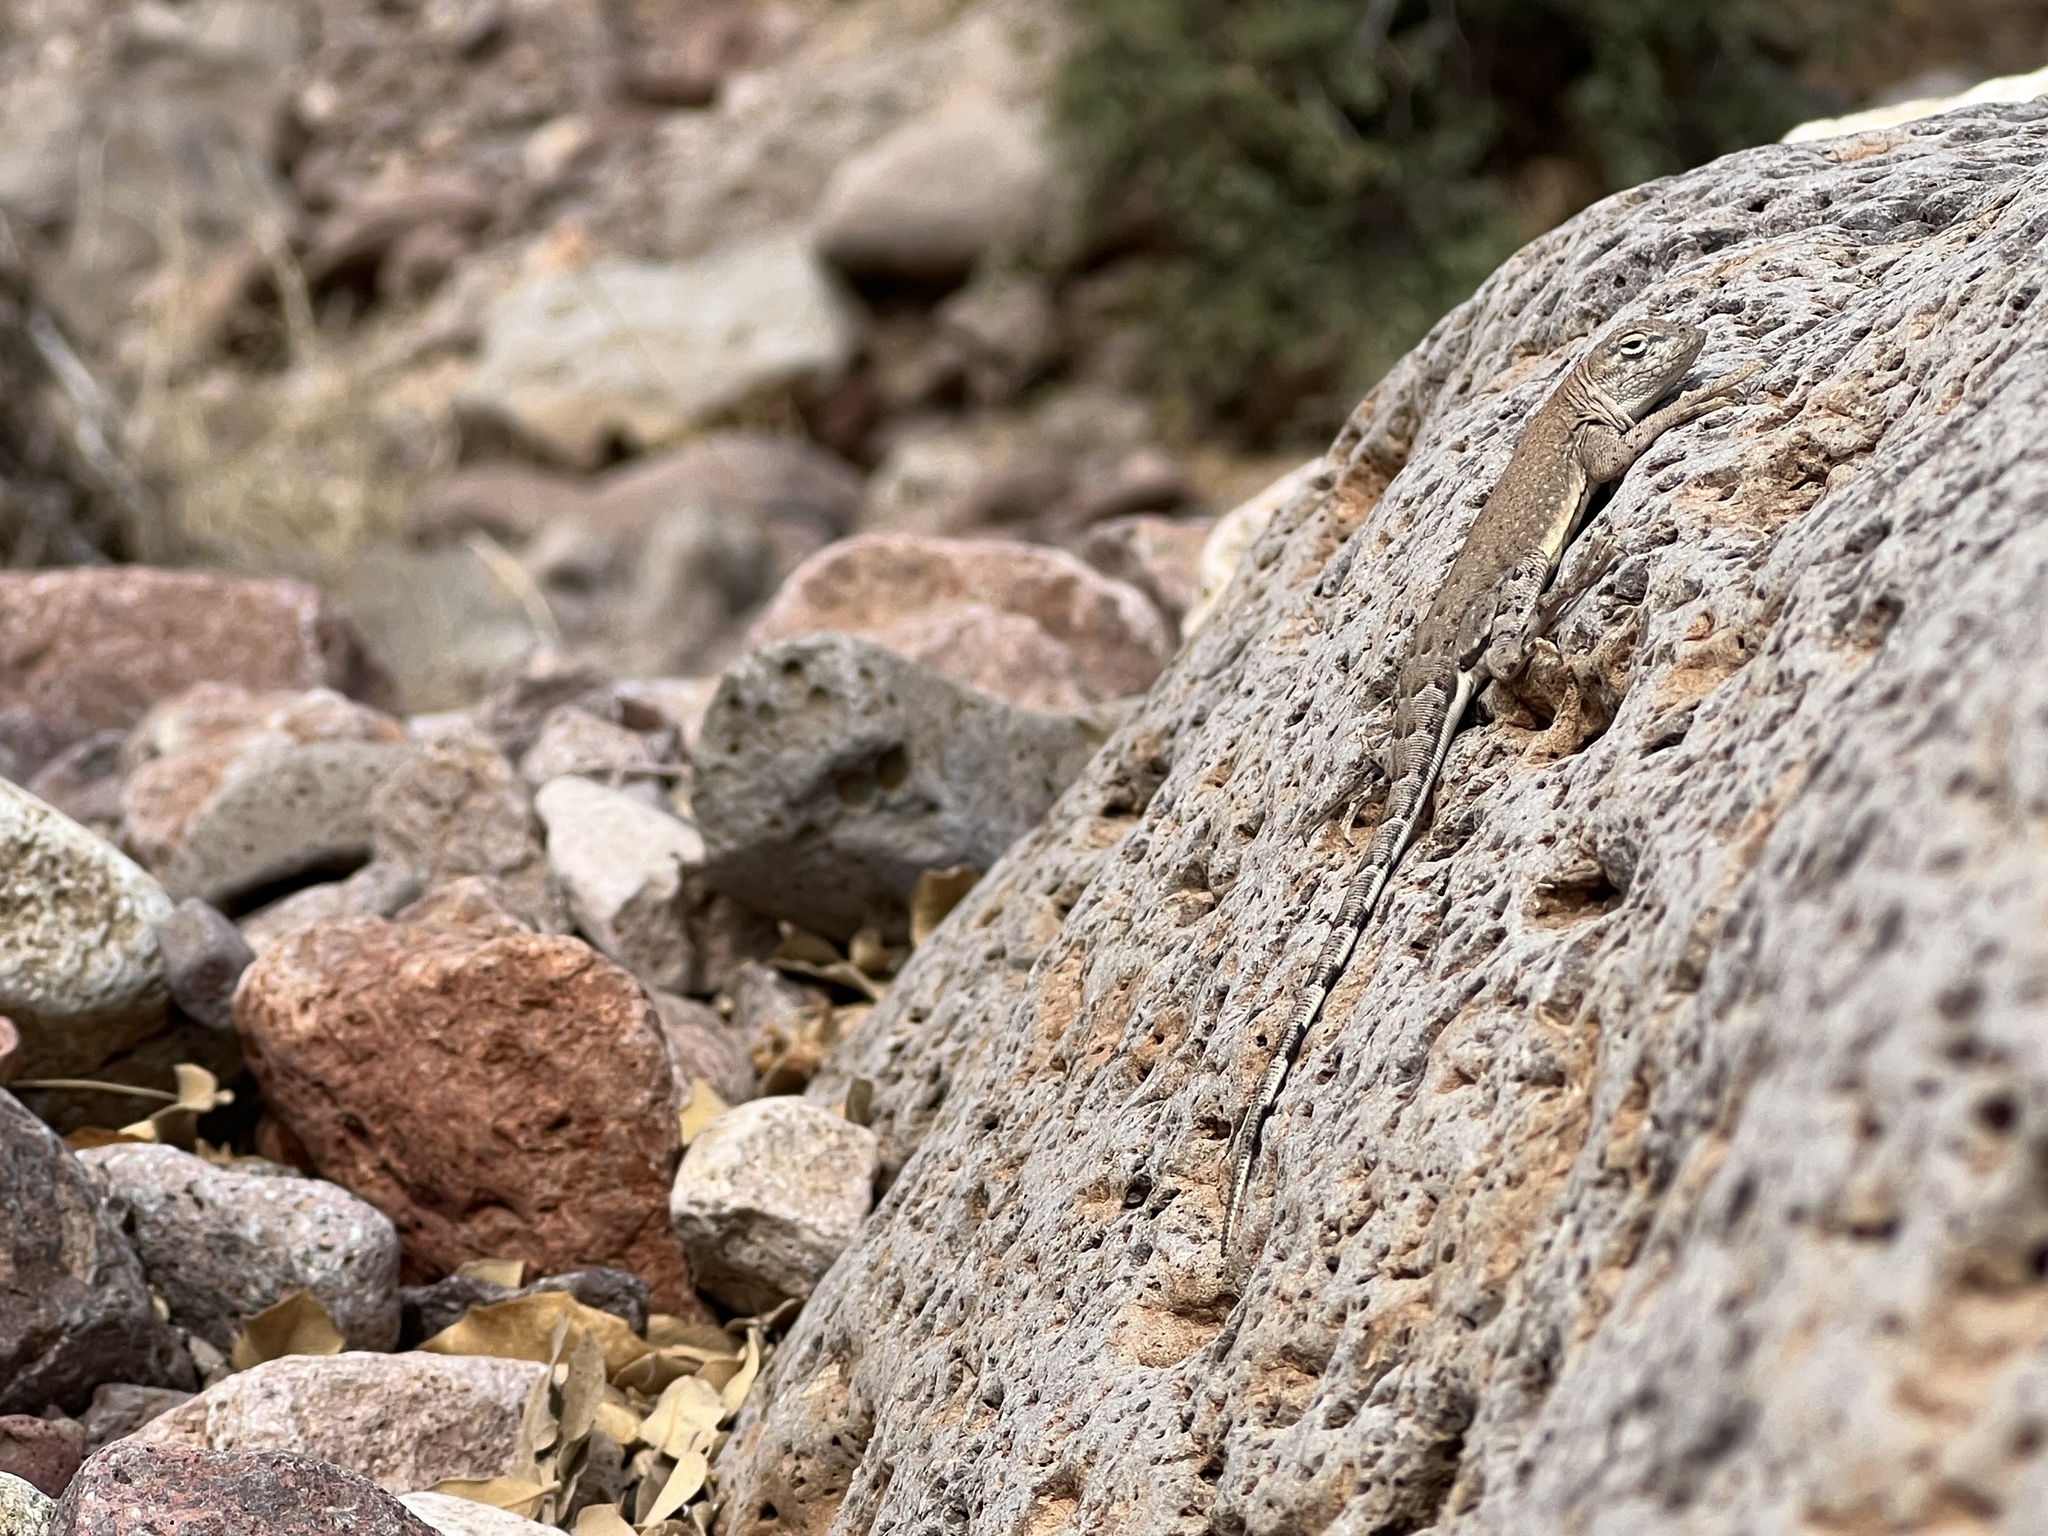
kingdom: Animalia
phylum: Chordata
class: Squamata
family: Phrynosomatidae
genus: Cophosaurus
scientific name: Cophosaurus texanus
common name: Greater earless lizard
